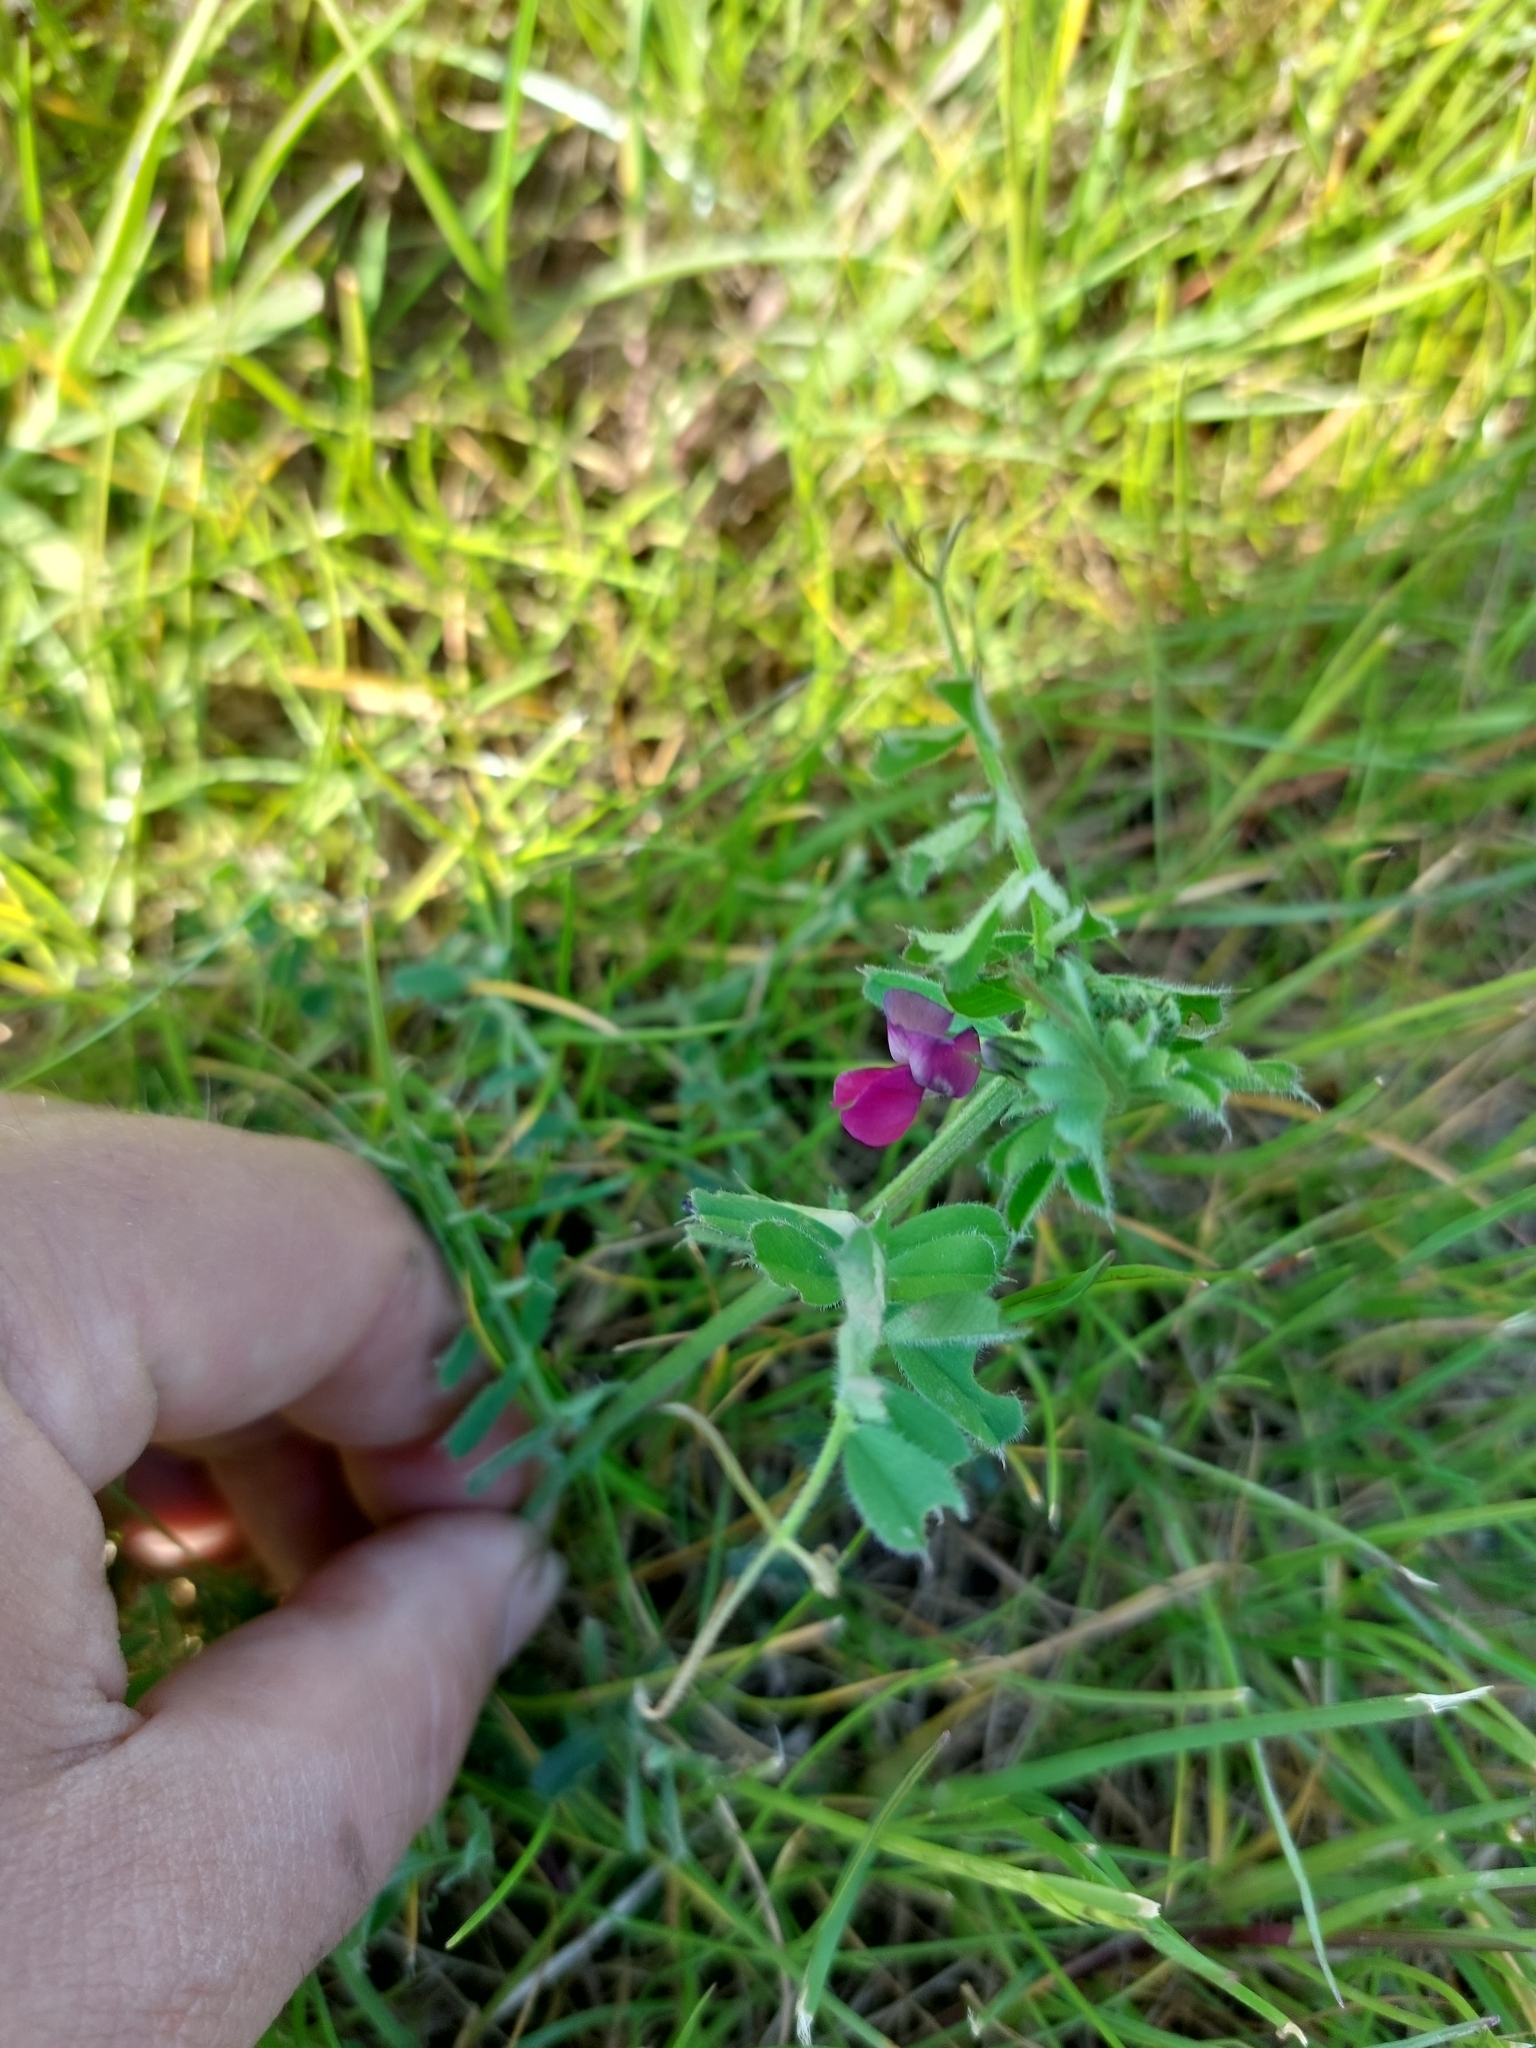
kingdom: Plantae
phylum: Tracheophyta
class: Magnoliopsida
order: Fabales
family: Fabaceae
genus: Vicia
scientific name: Vicia sativa
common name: Garden vetch
